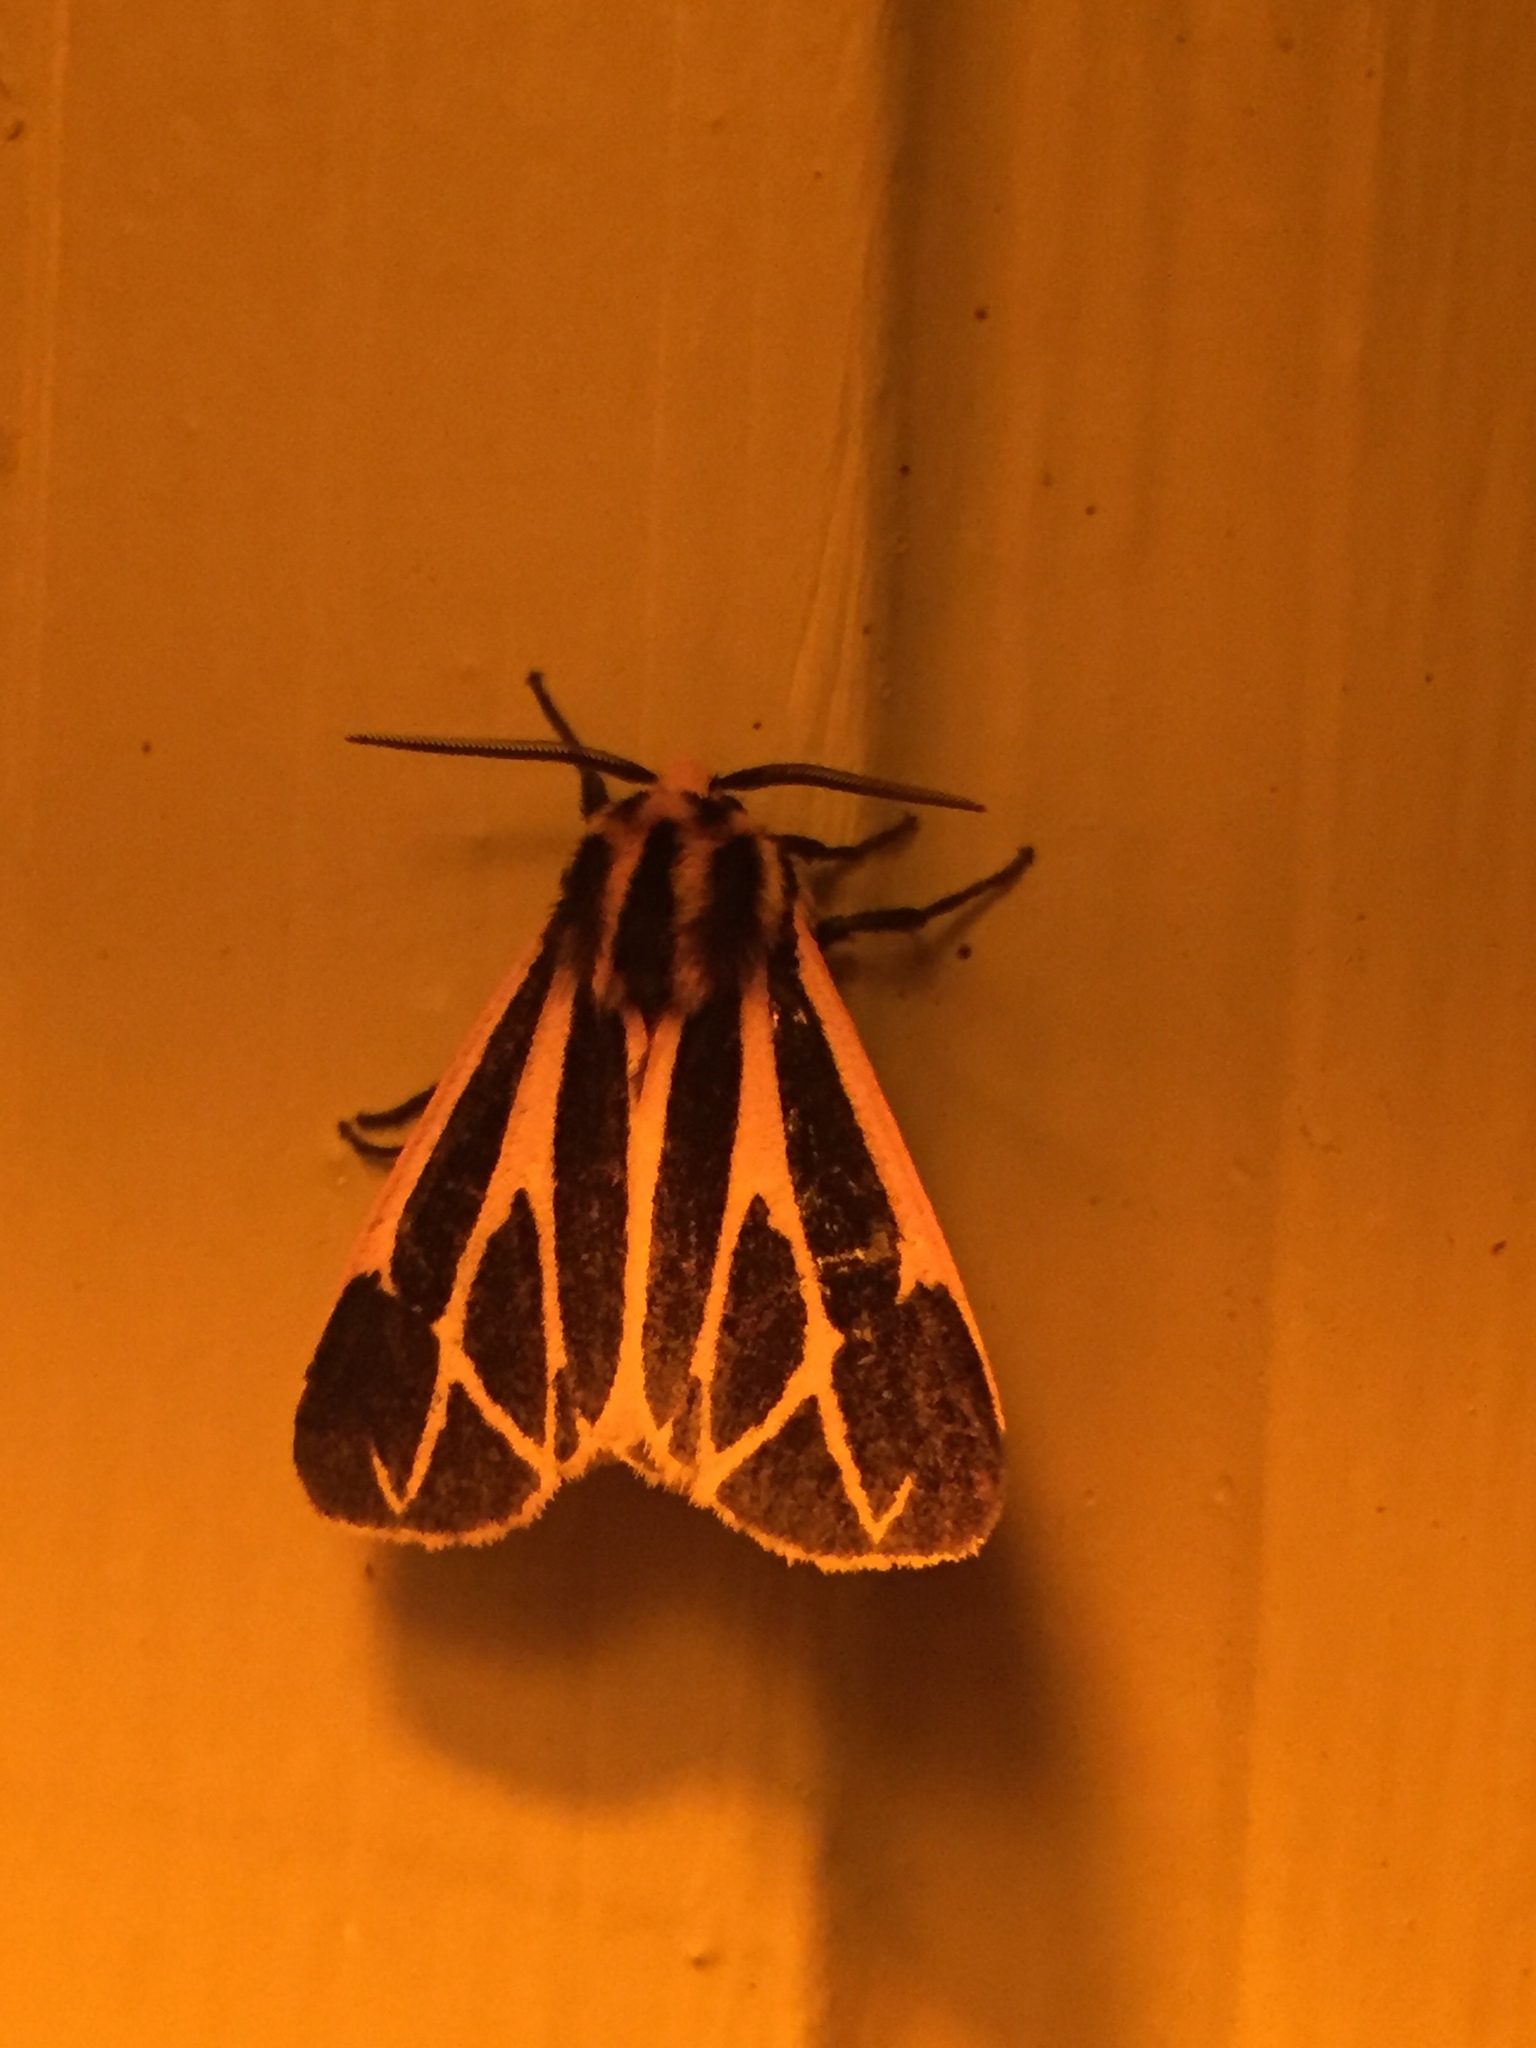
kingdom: Animalia
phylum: Arthropoda
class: Insecta
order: Lepidoptera
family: Erebidae
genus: Apantesis
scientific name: Apantesis phalerata
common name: Harnessed tiger moth
